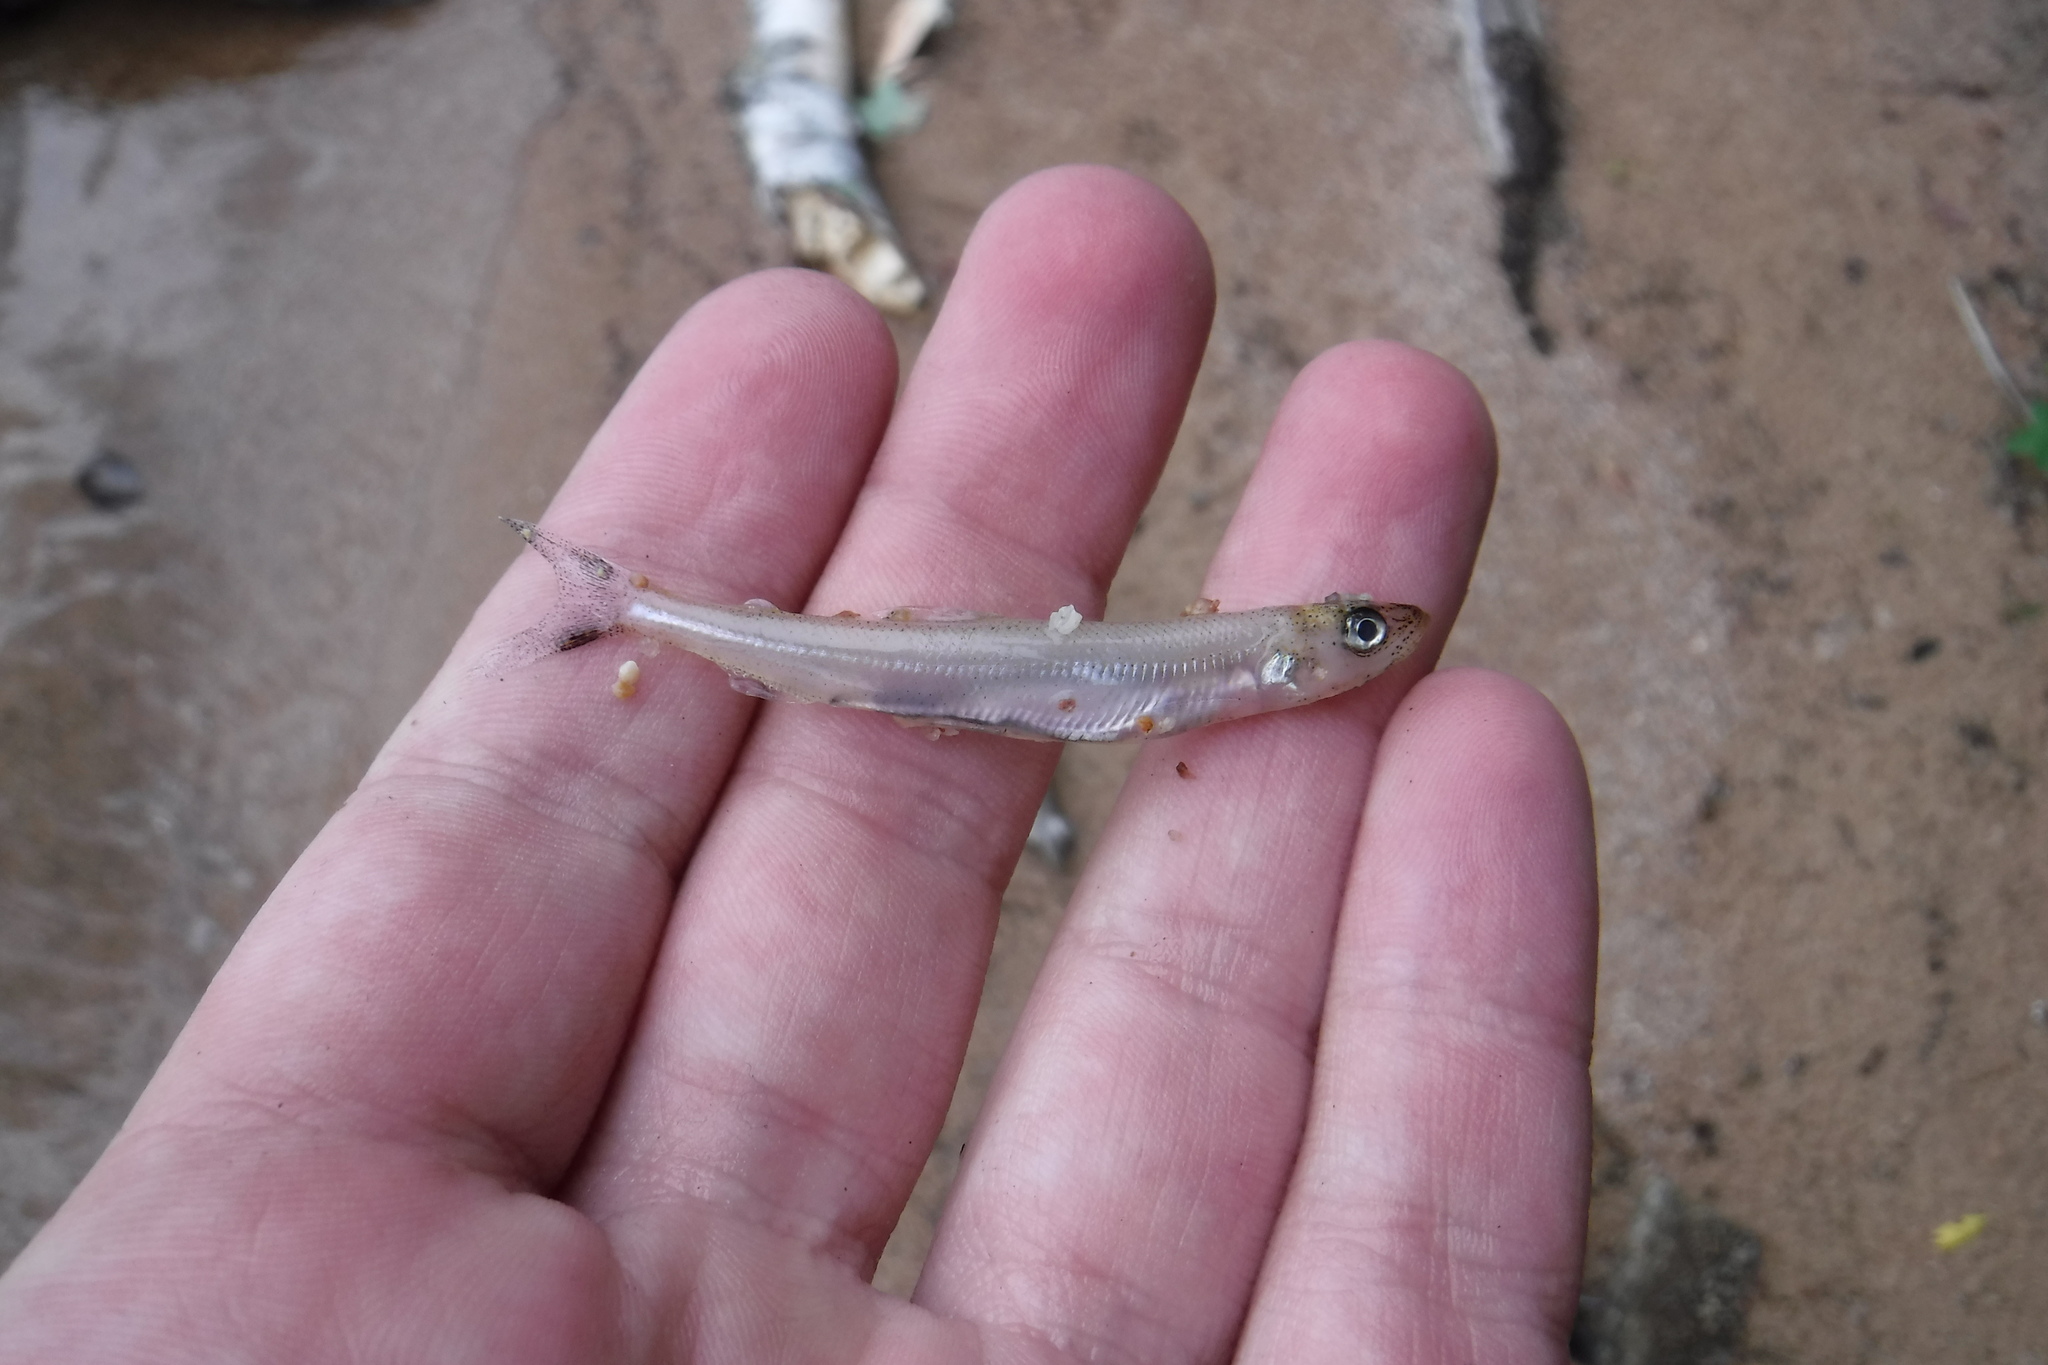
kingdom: Animalia
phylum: Chordata
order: Osmeriformes
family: Osmeridae
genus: Osmerus
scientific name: Osmerus mordax
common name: Rainbow smelt
